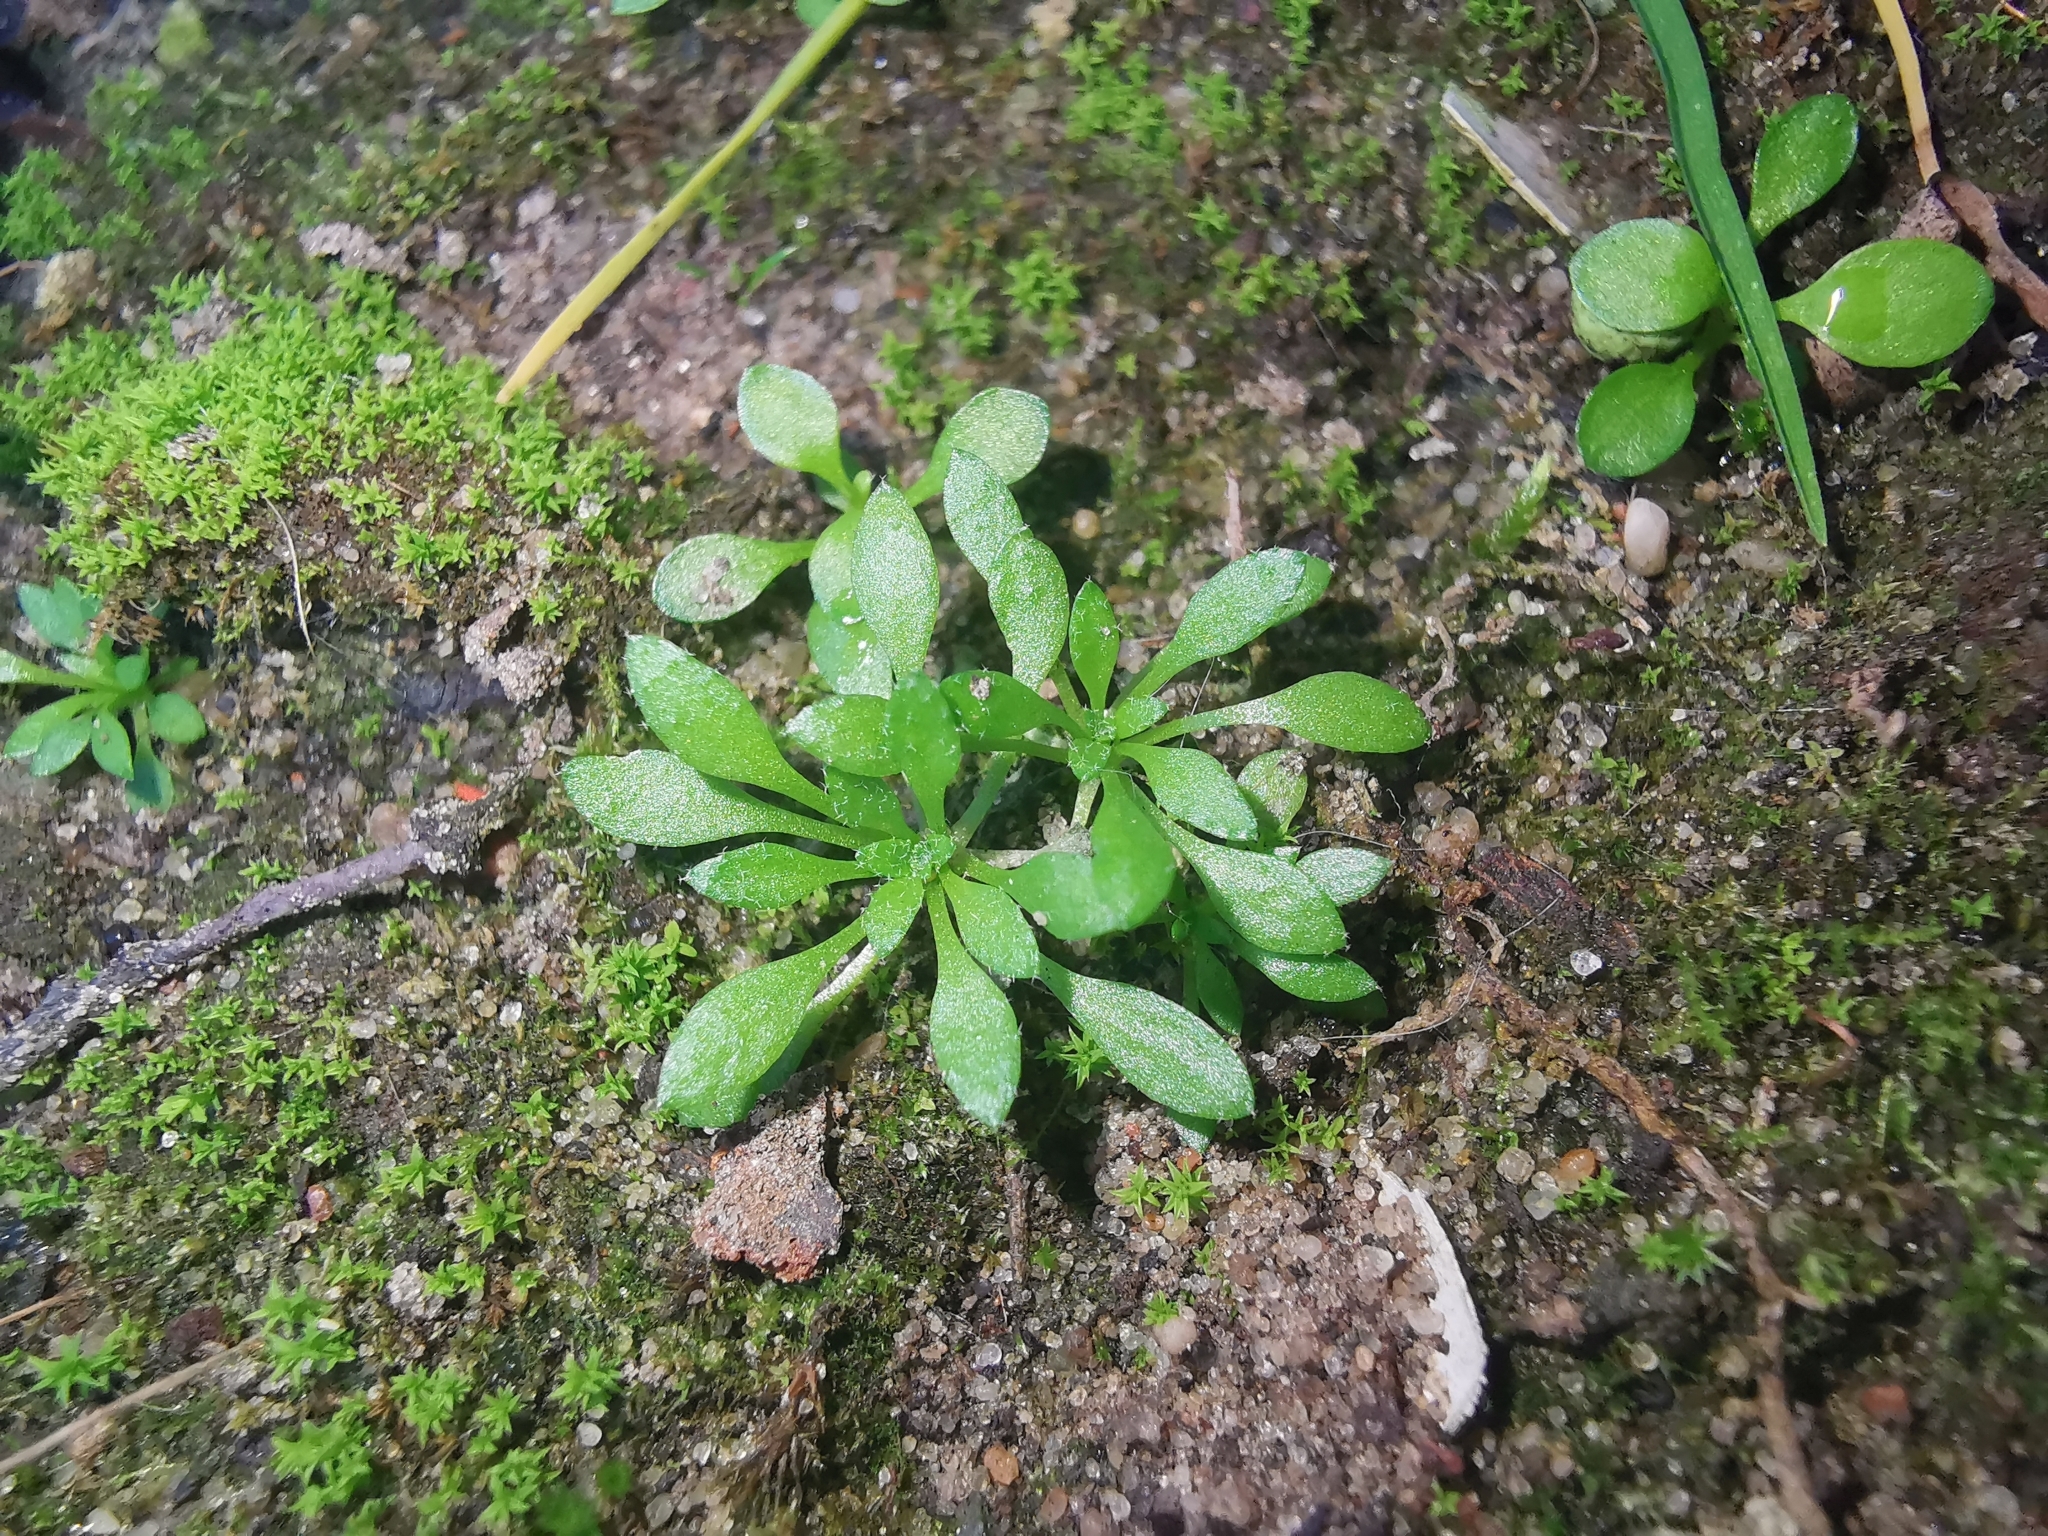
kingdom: Plantae
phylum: Tracheophyta
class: Magnoliopsida
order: Brassicales
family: Brassicaceae
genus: Draba
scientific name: Draba verna
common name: Spring draba
